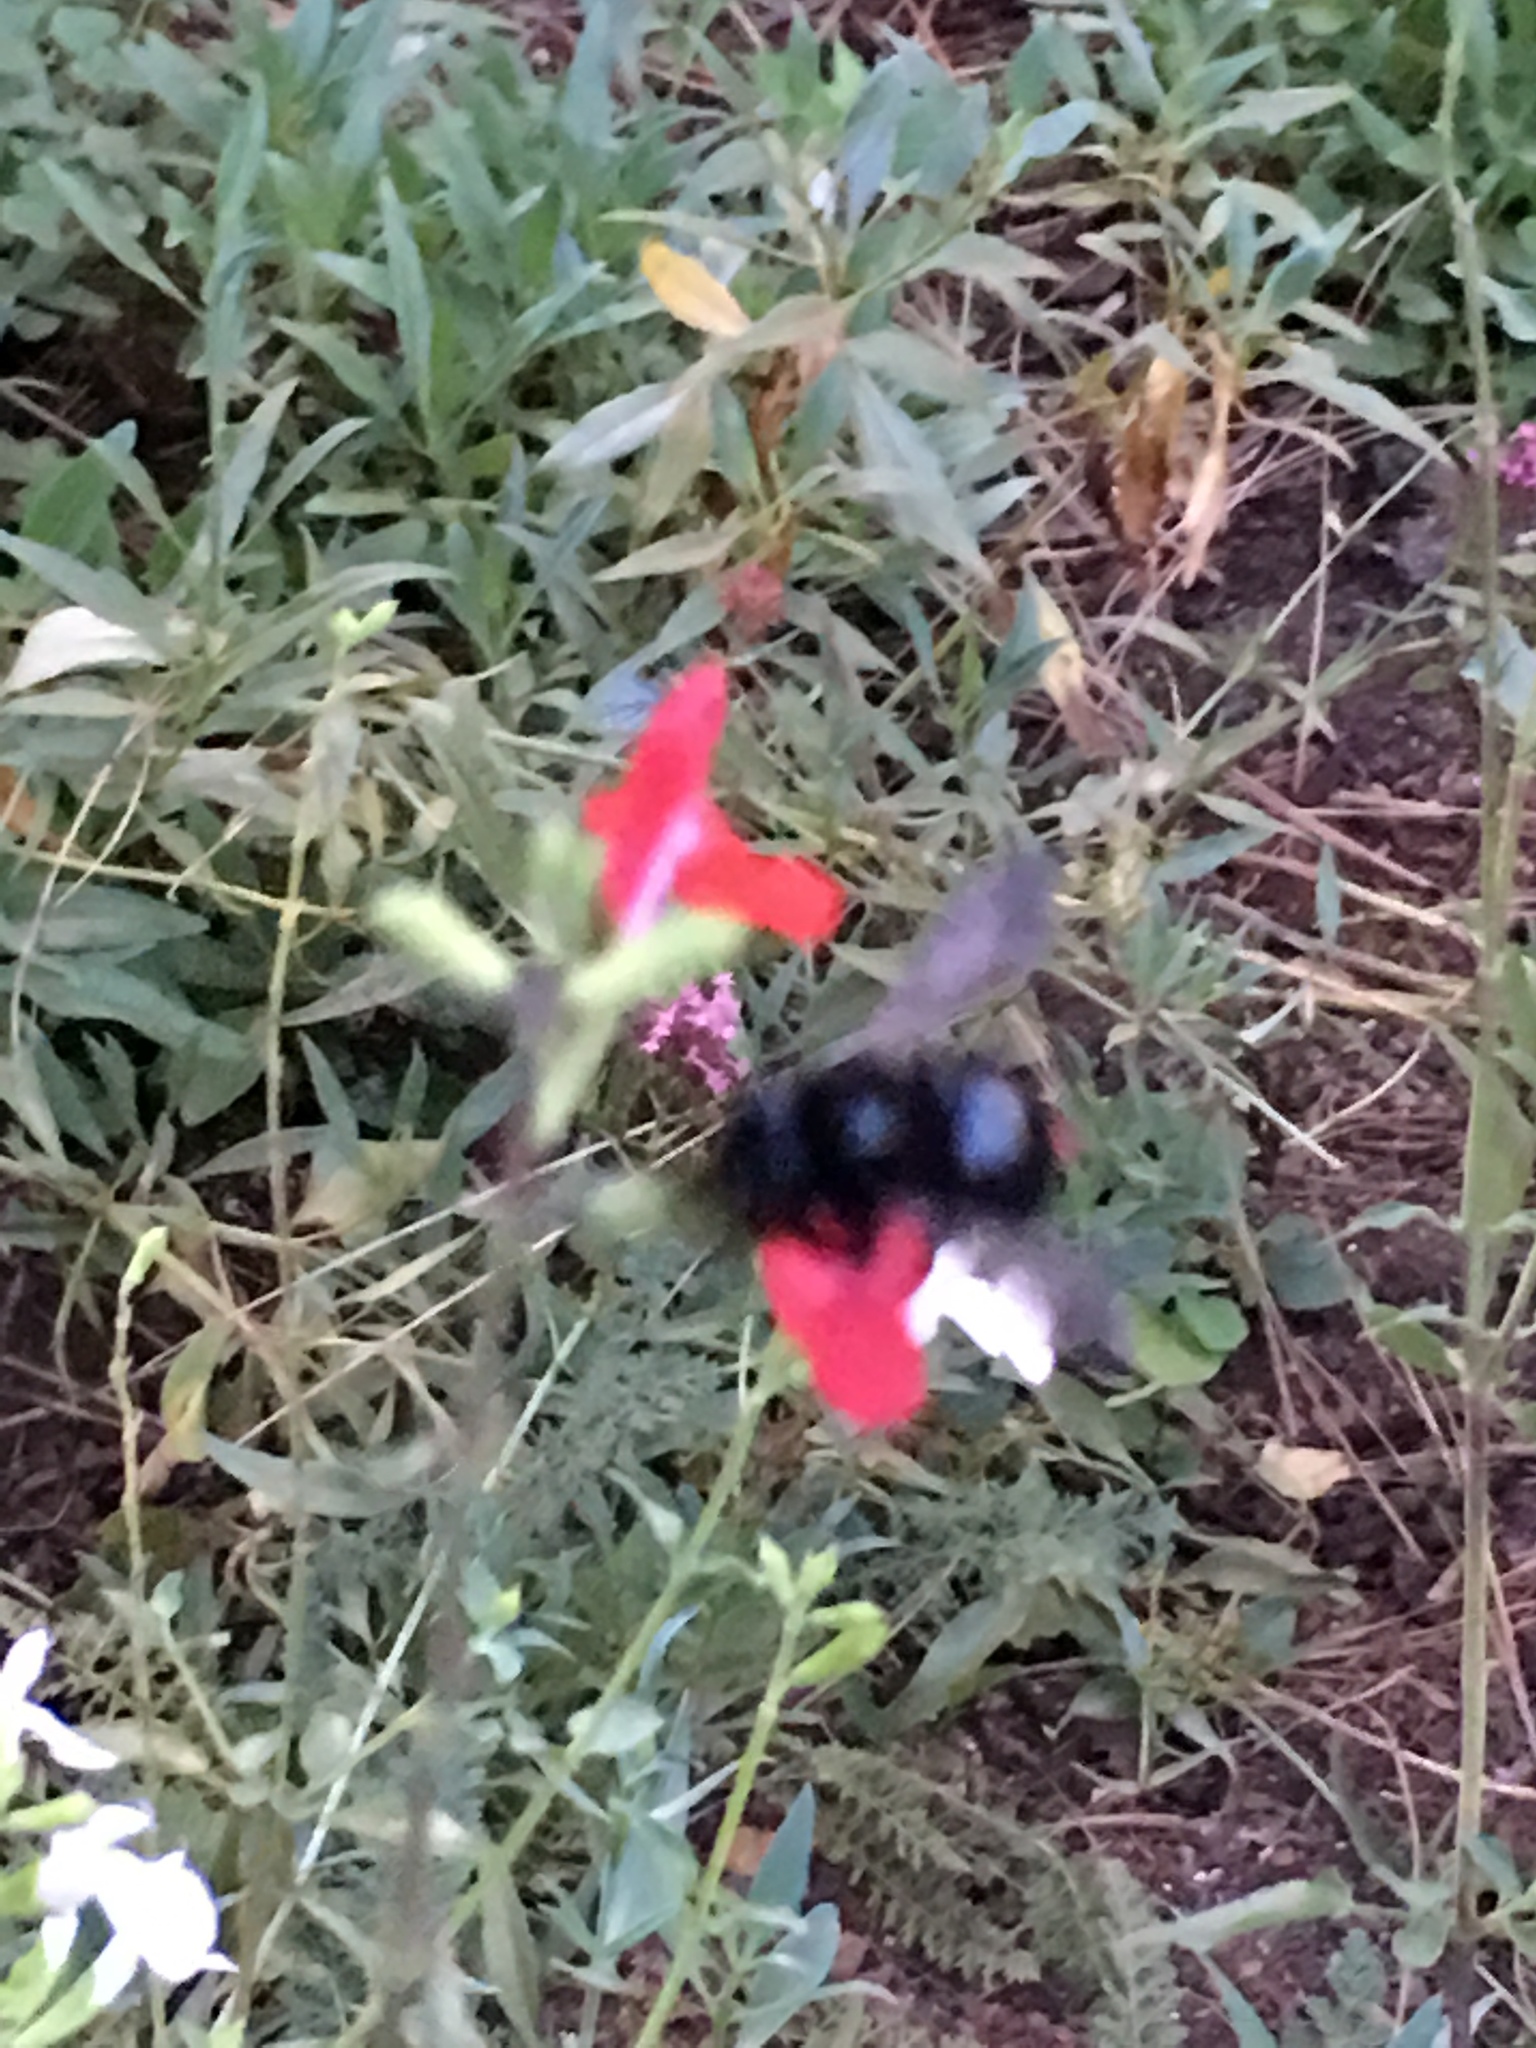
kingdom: Animalia
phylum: Arthropoda
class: Insecta
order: Hymenoptera
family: Apidae
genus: Xylocopa
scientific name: Xylocopa tabaniformis
